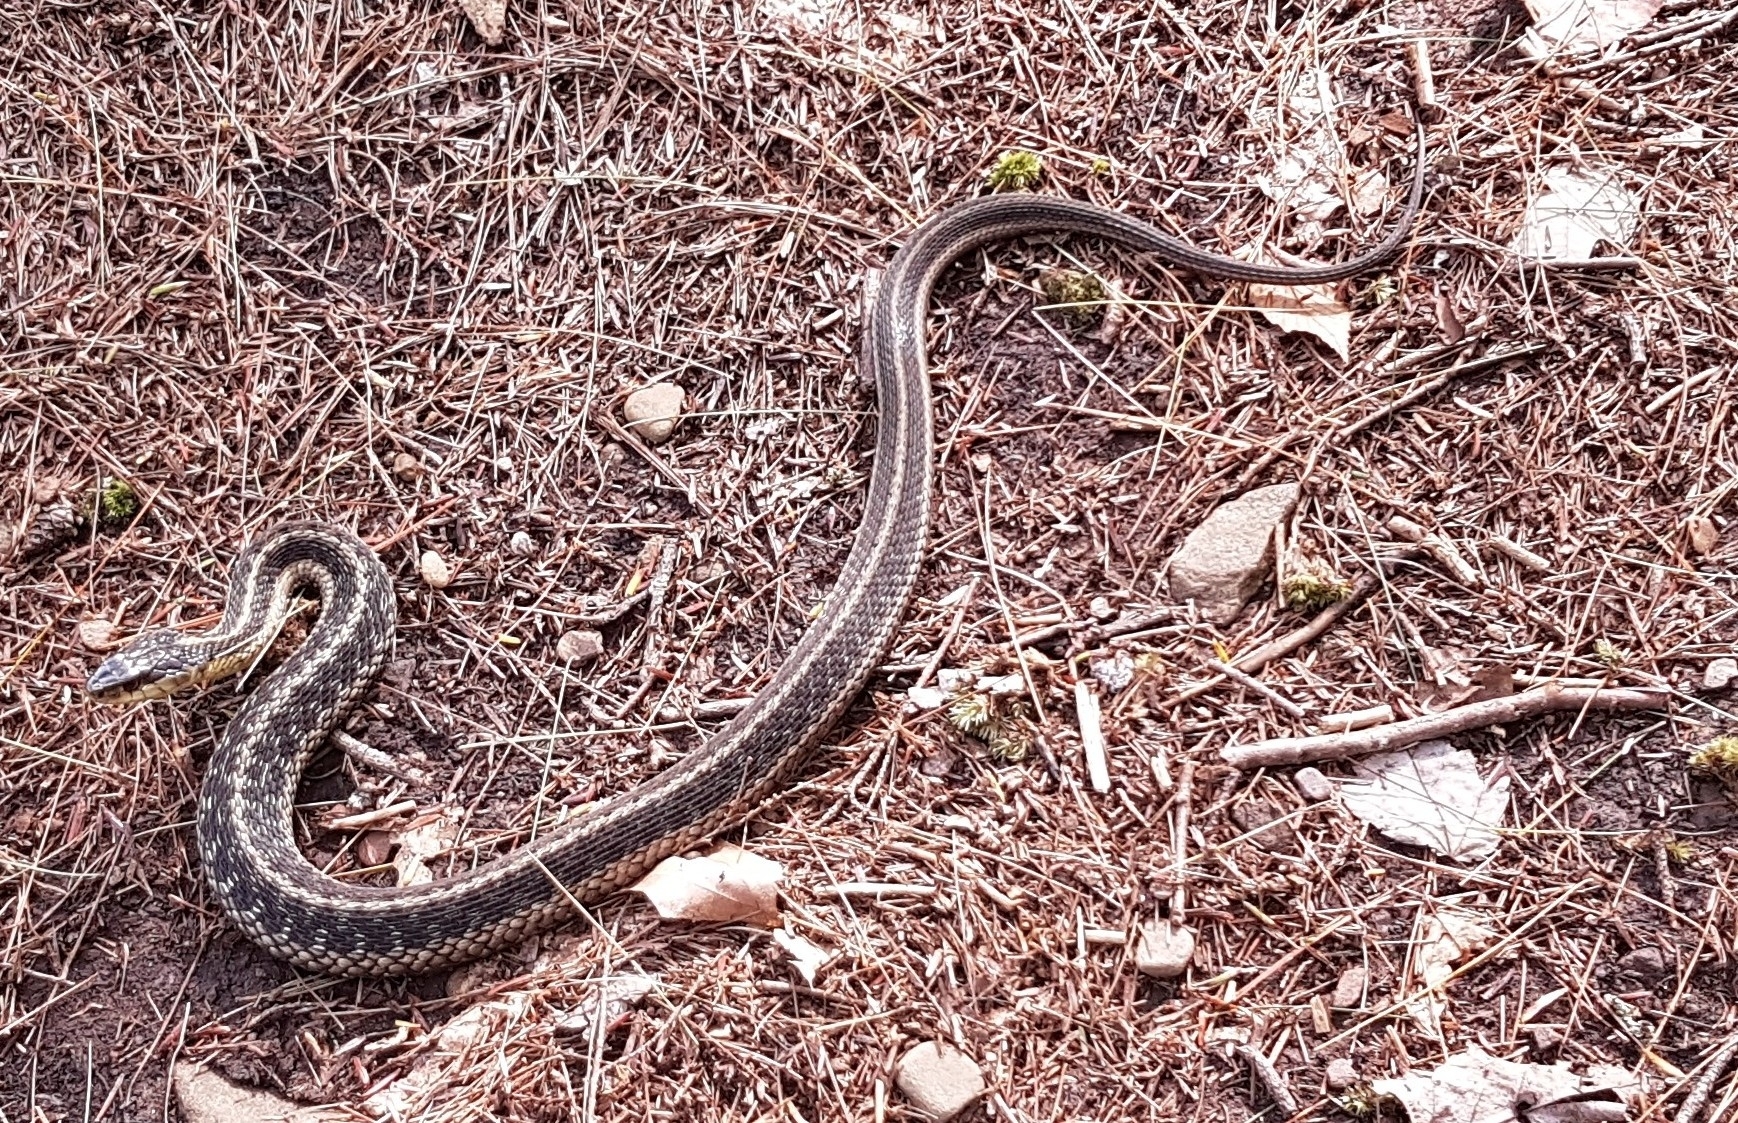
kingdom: Animalia
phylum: Chordata
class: Squamata
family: Colubridae
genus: Thamnophis
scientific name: Thamnophis sirtalis
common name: Common garter snake
